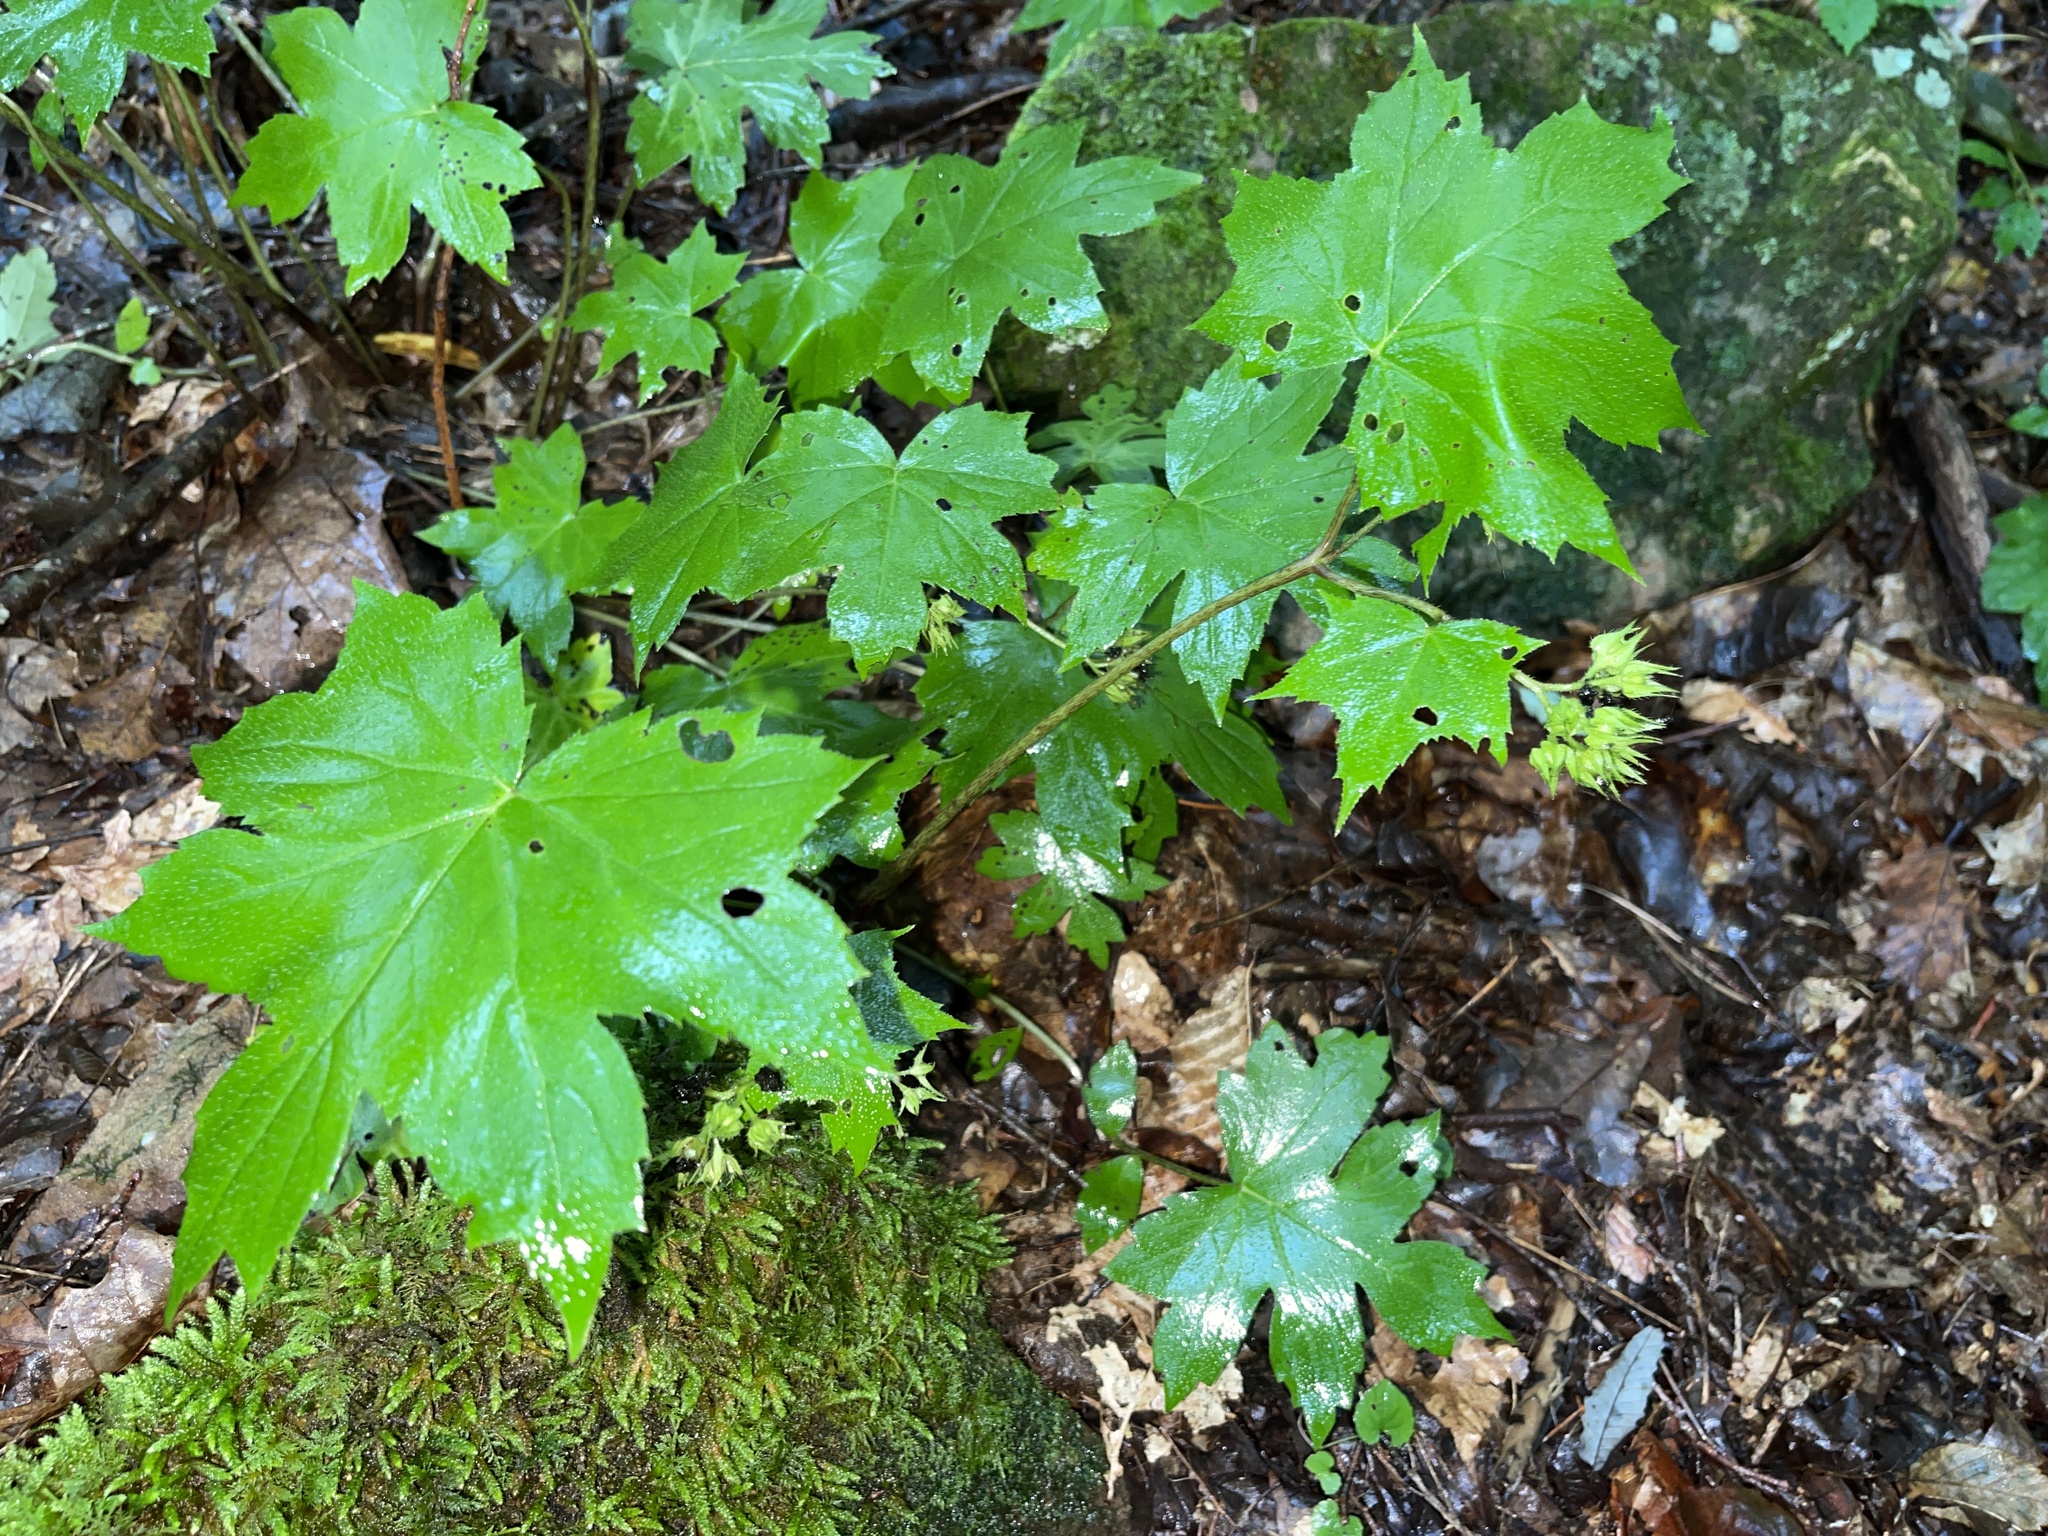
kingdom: Plantae
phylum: Tracheophyta
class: Magnoliopsida
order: Boraginales
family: Hydrophyllaceae
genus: Hydrophyllum
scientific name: Hydrophyllum canadense
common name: Canada waterleaf
